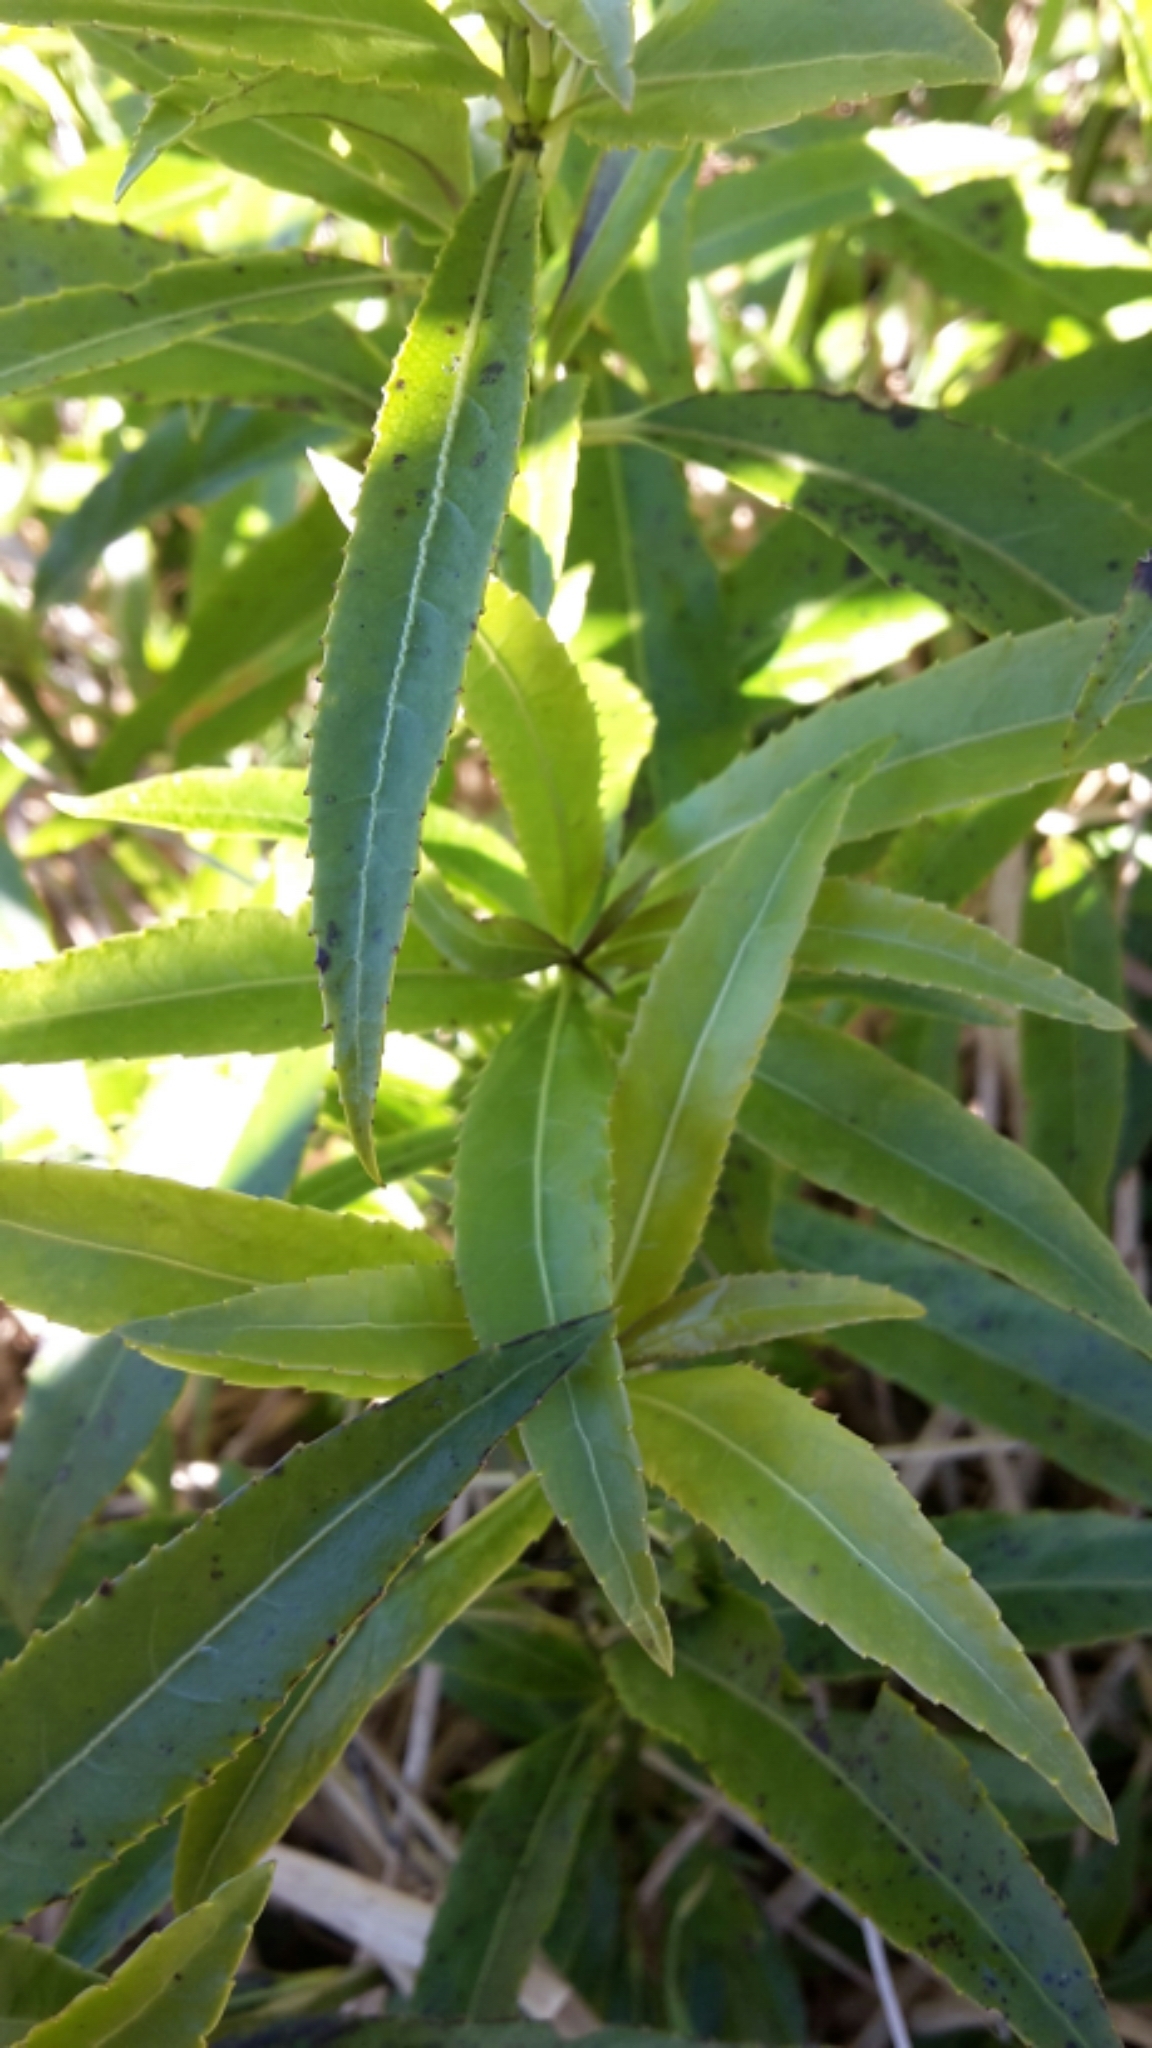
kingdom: Plantae
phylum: Tracheophyta
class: Magnoliopsida
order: Malpighiales
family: Violaceae
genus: Melicytus
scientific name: Melicytus lanceolatus
